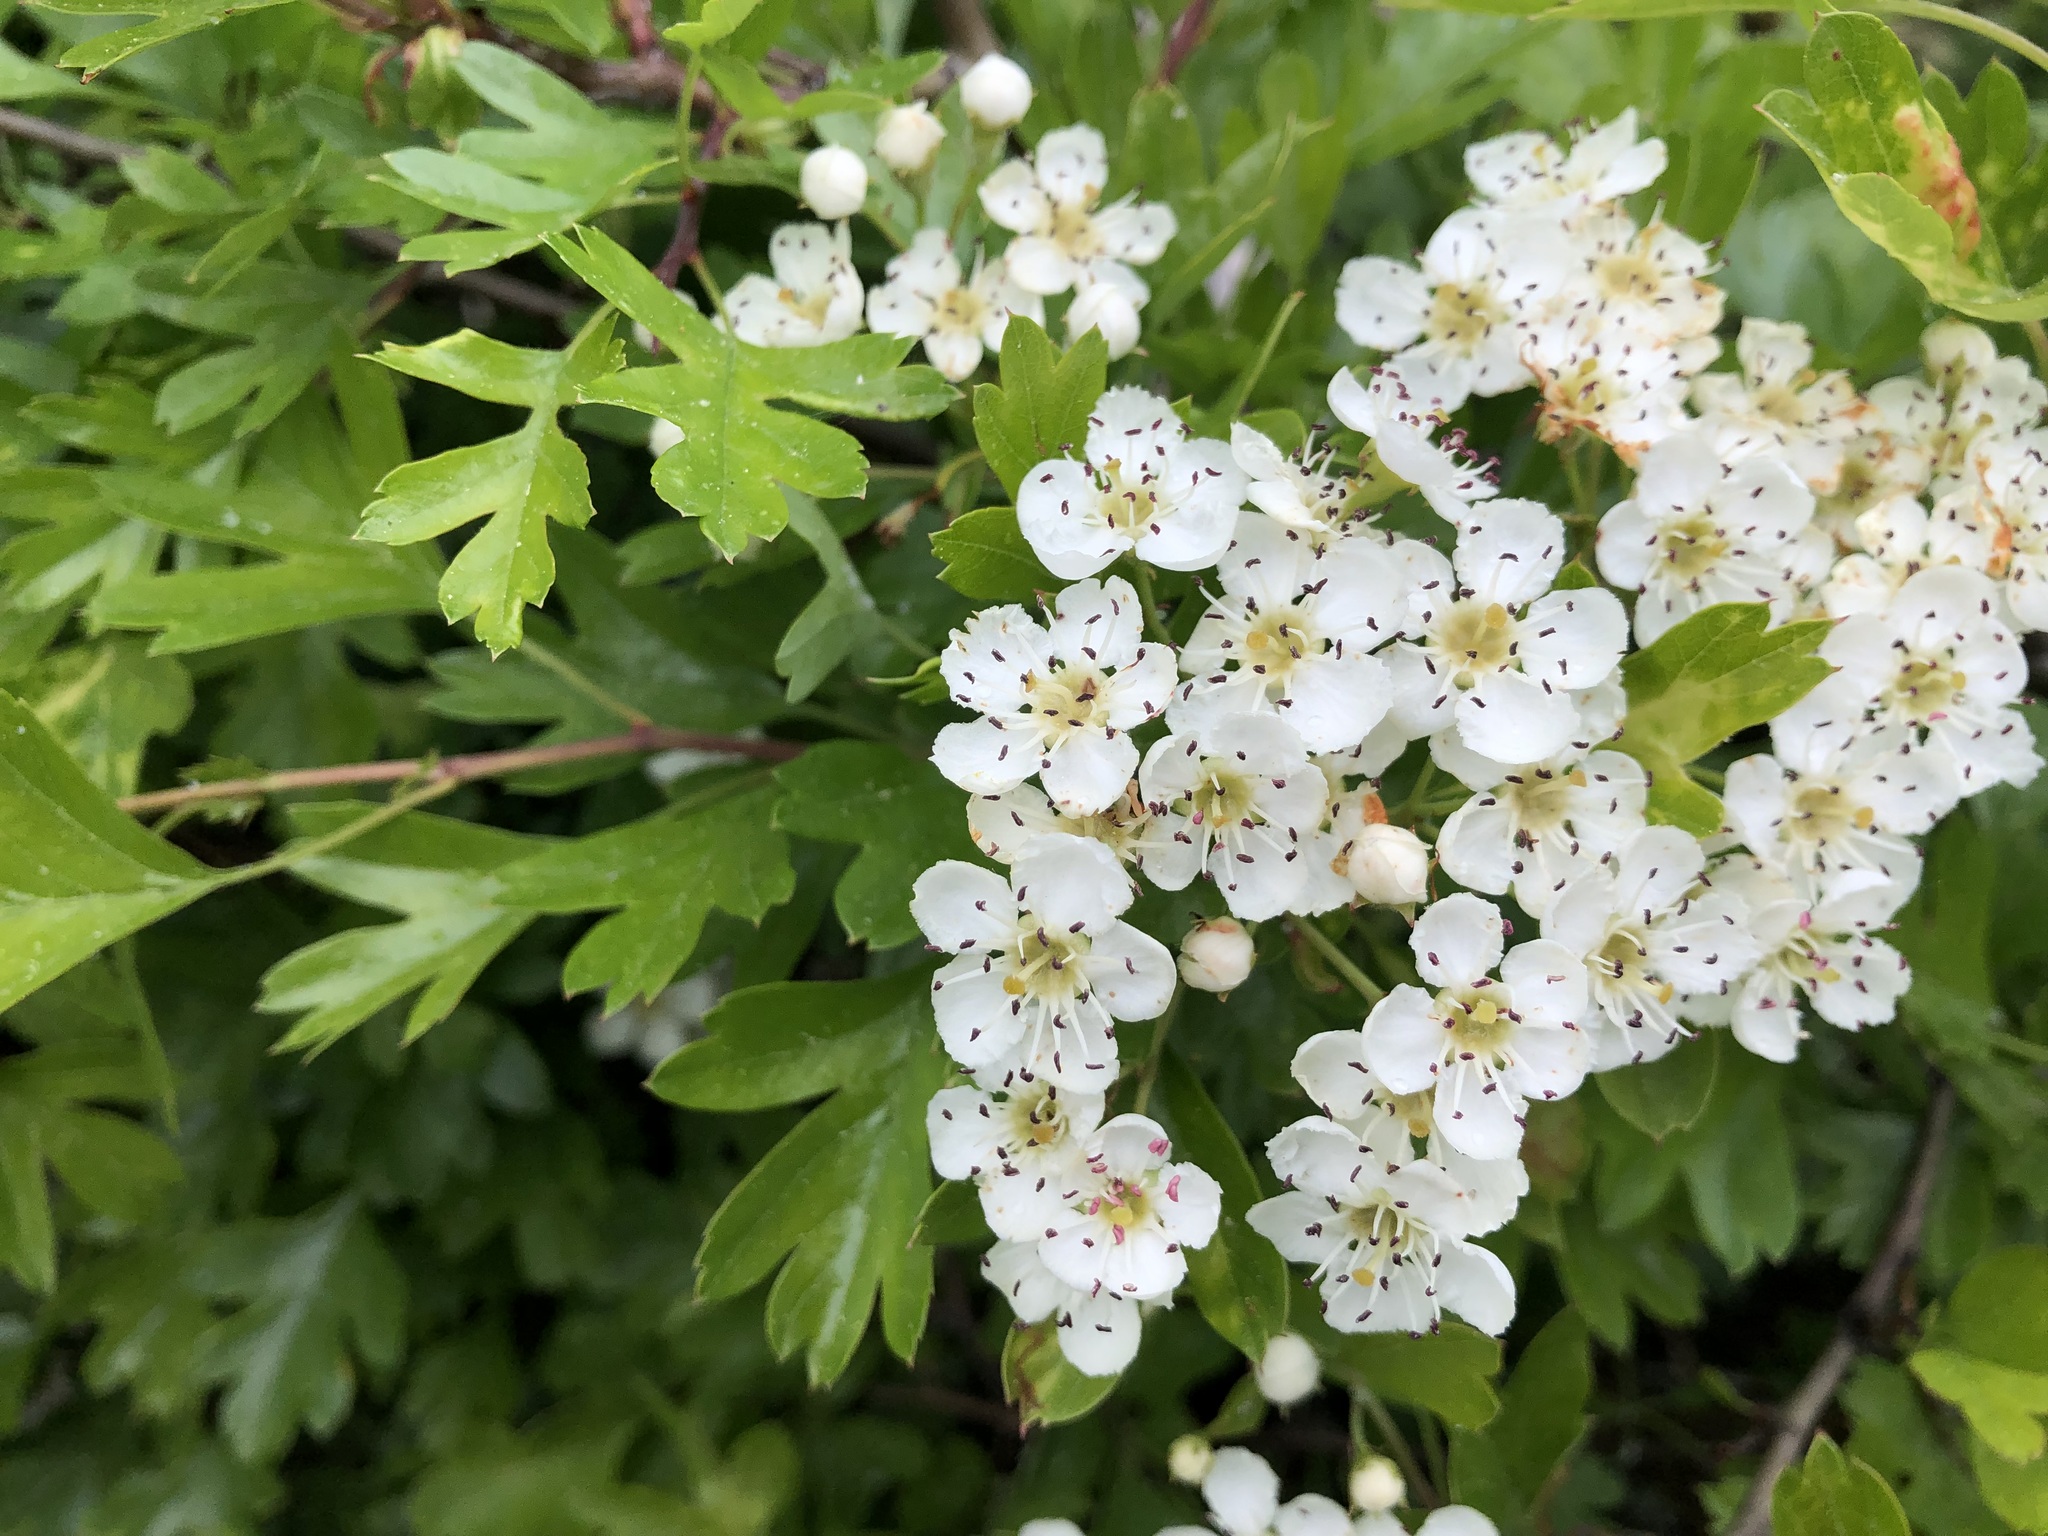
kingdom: Plantae
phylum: Tracheophyta
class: Magnoliopsida
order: Rosales
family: Rosaceae
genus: Crataegus
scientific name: Crataegus monogyna
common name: Hawthorn
